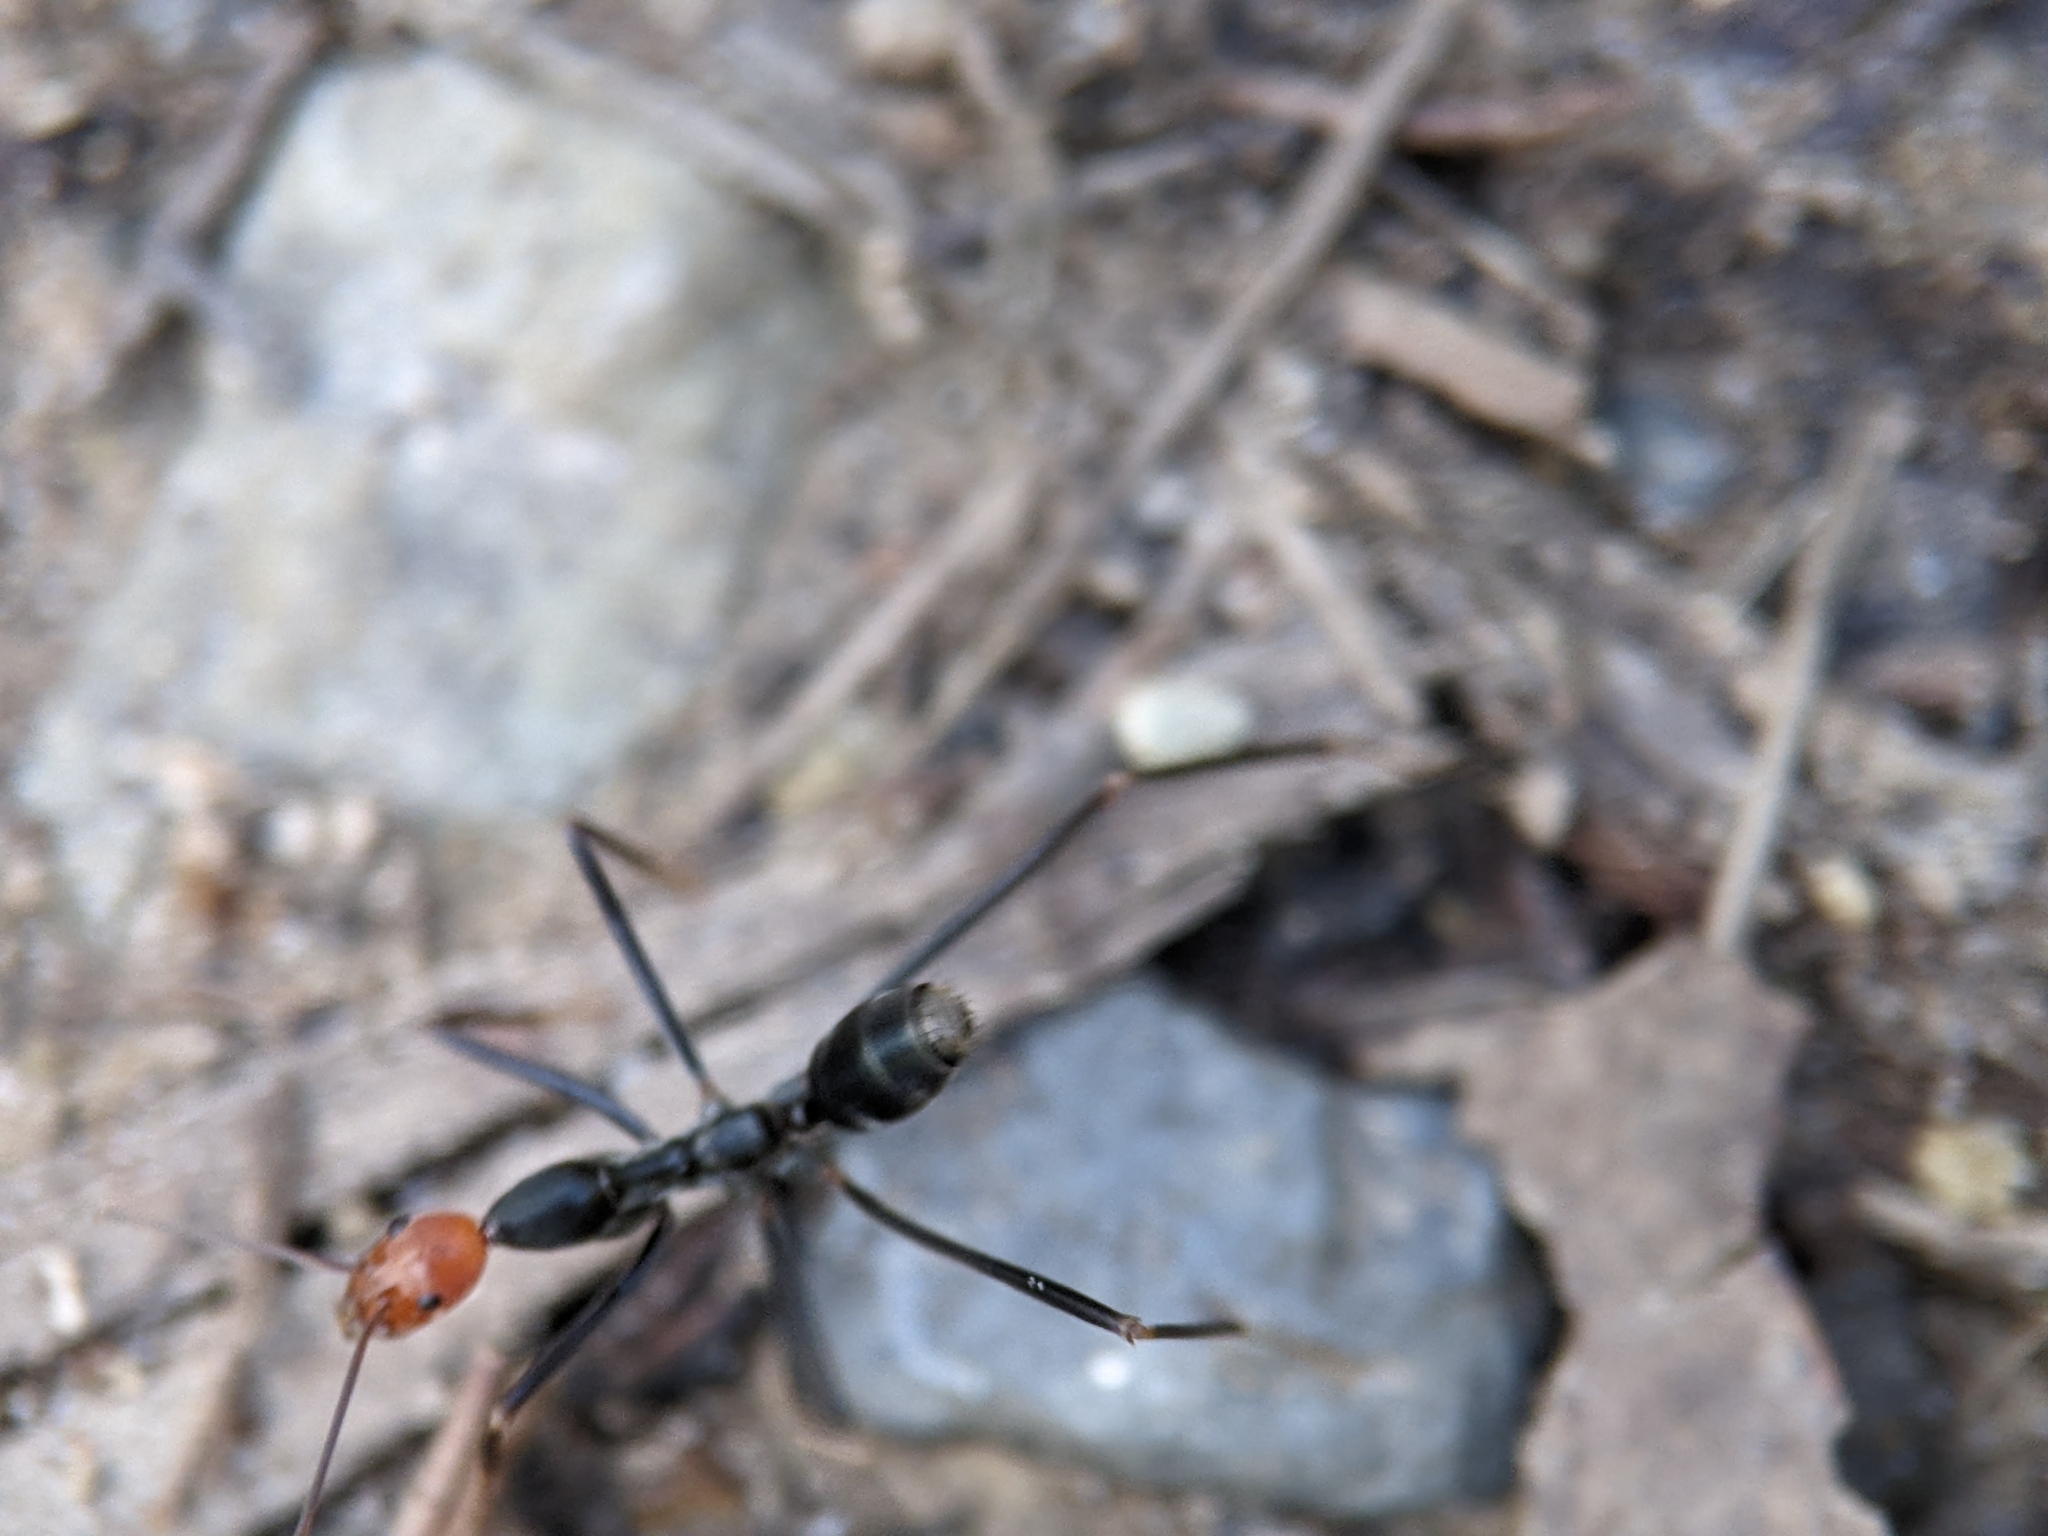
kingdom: Animalia
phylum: Arthropoda
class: Insecta
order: Hymenoptera
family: Formicidae
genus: Leptomyrmex
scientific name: Leptomyrmex erythrocephalus
